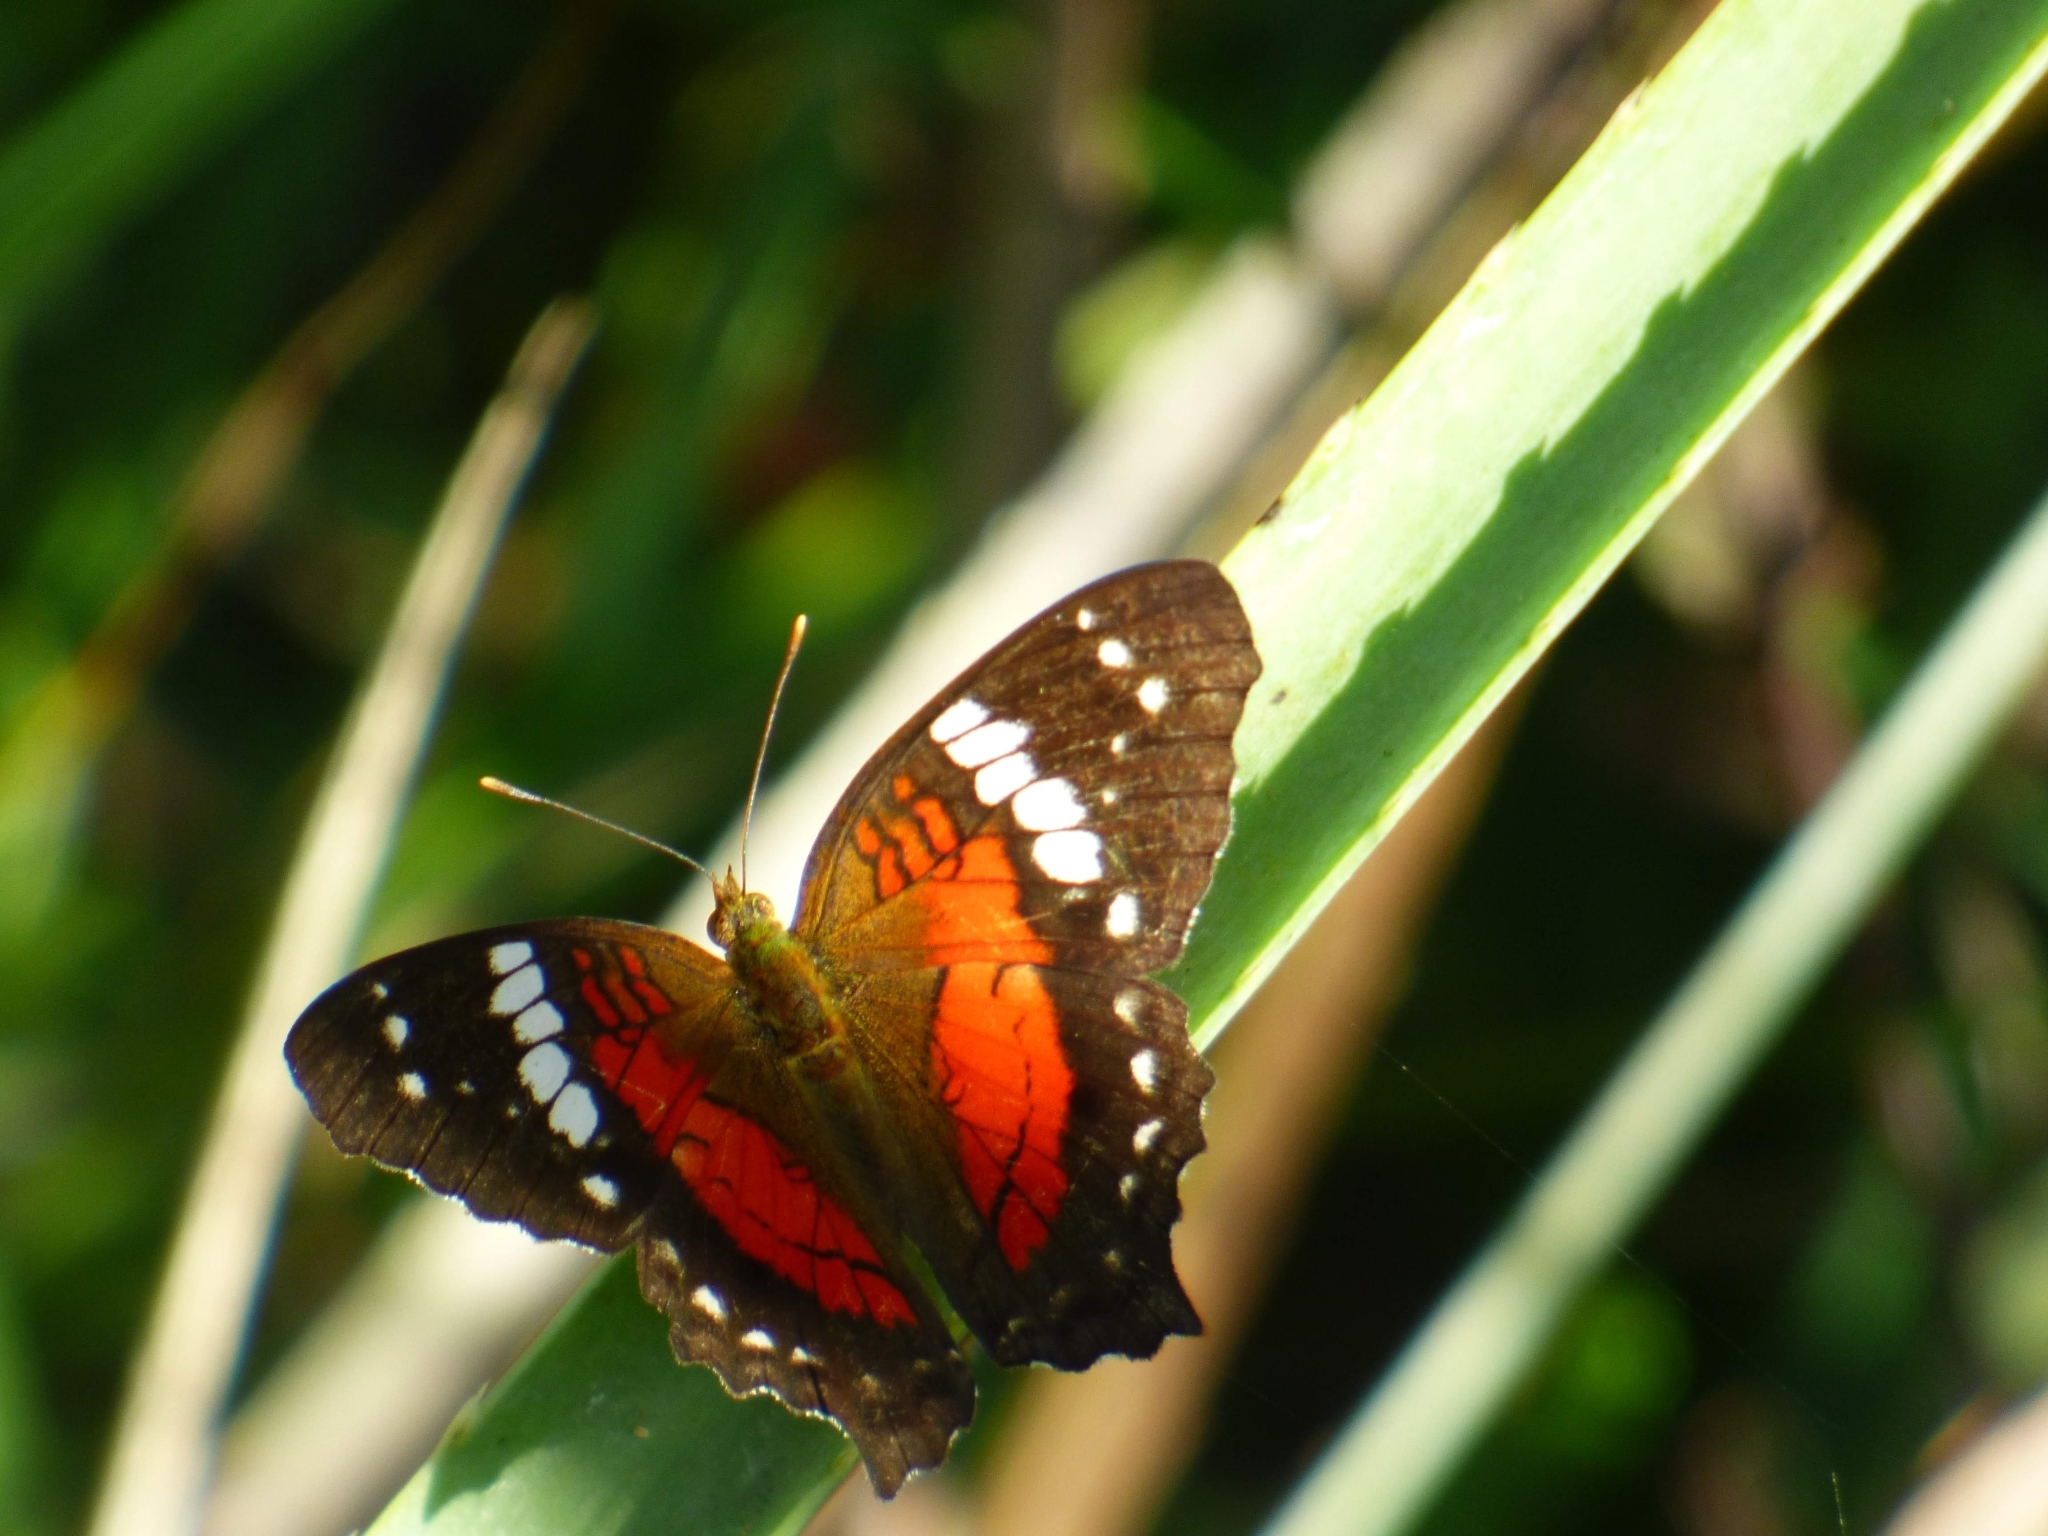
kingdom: Animalia
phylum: Arthropoda
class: Insecta
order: Lepidoptera
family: Nymphalidae
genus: Anartia
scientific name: Anartia amathea
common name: Red peacock
